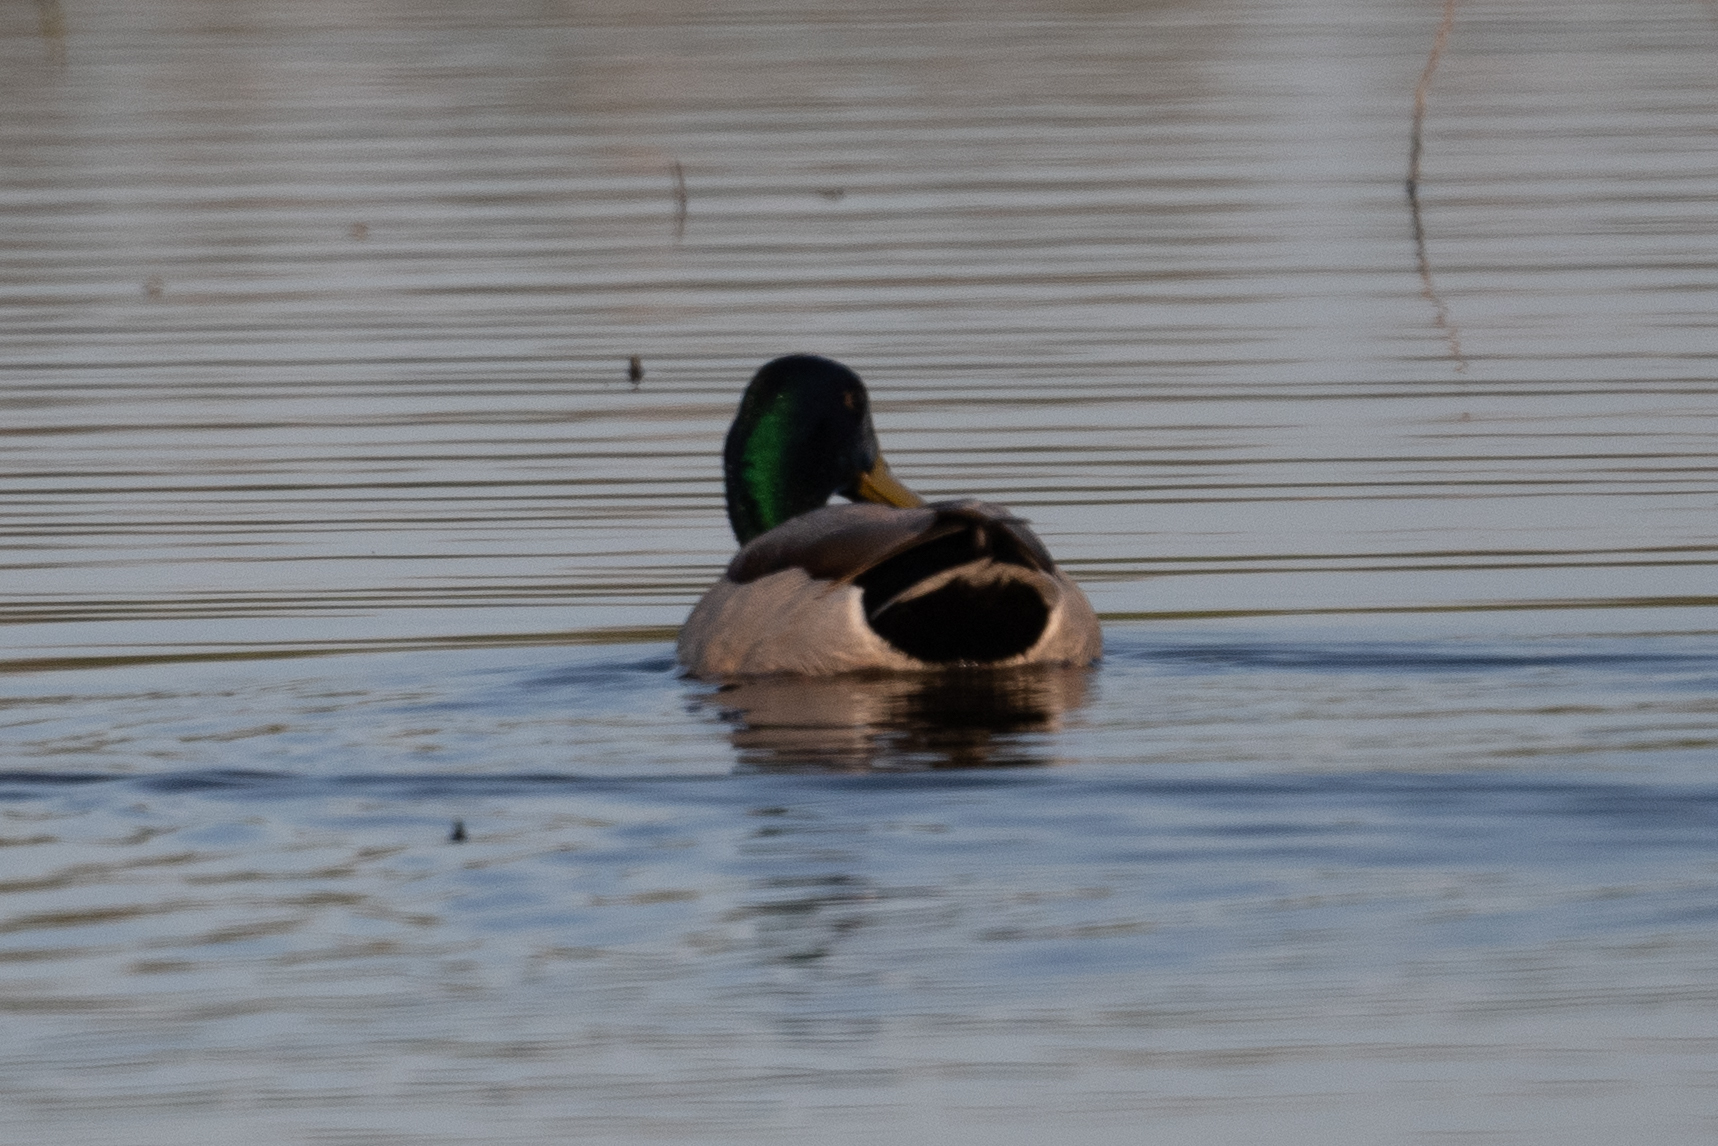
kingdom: Animalia
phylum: Chordata
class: Aves
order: Anseriformes
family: Anatidae
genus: Anas
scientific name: Anas platyrhynchos
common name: Mallard
